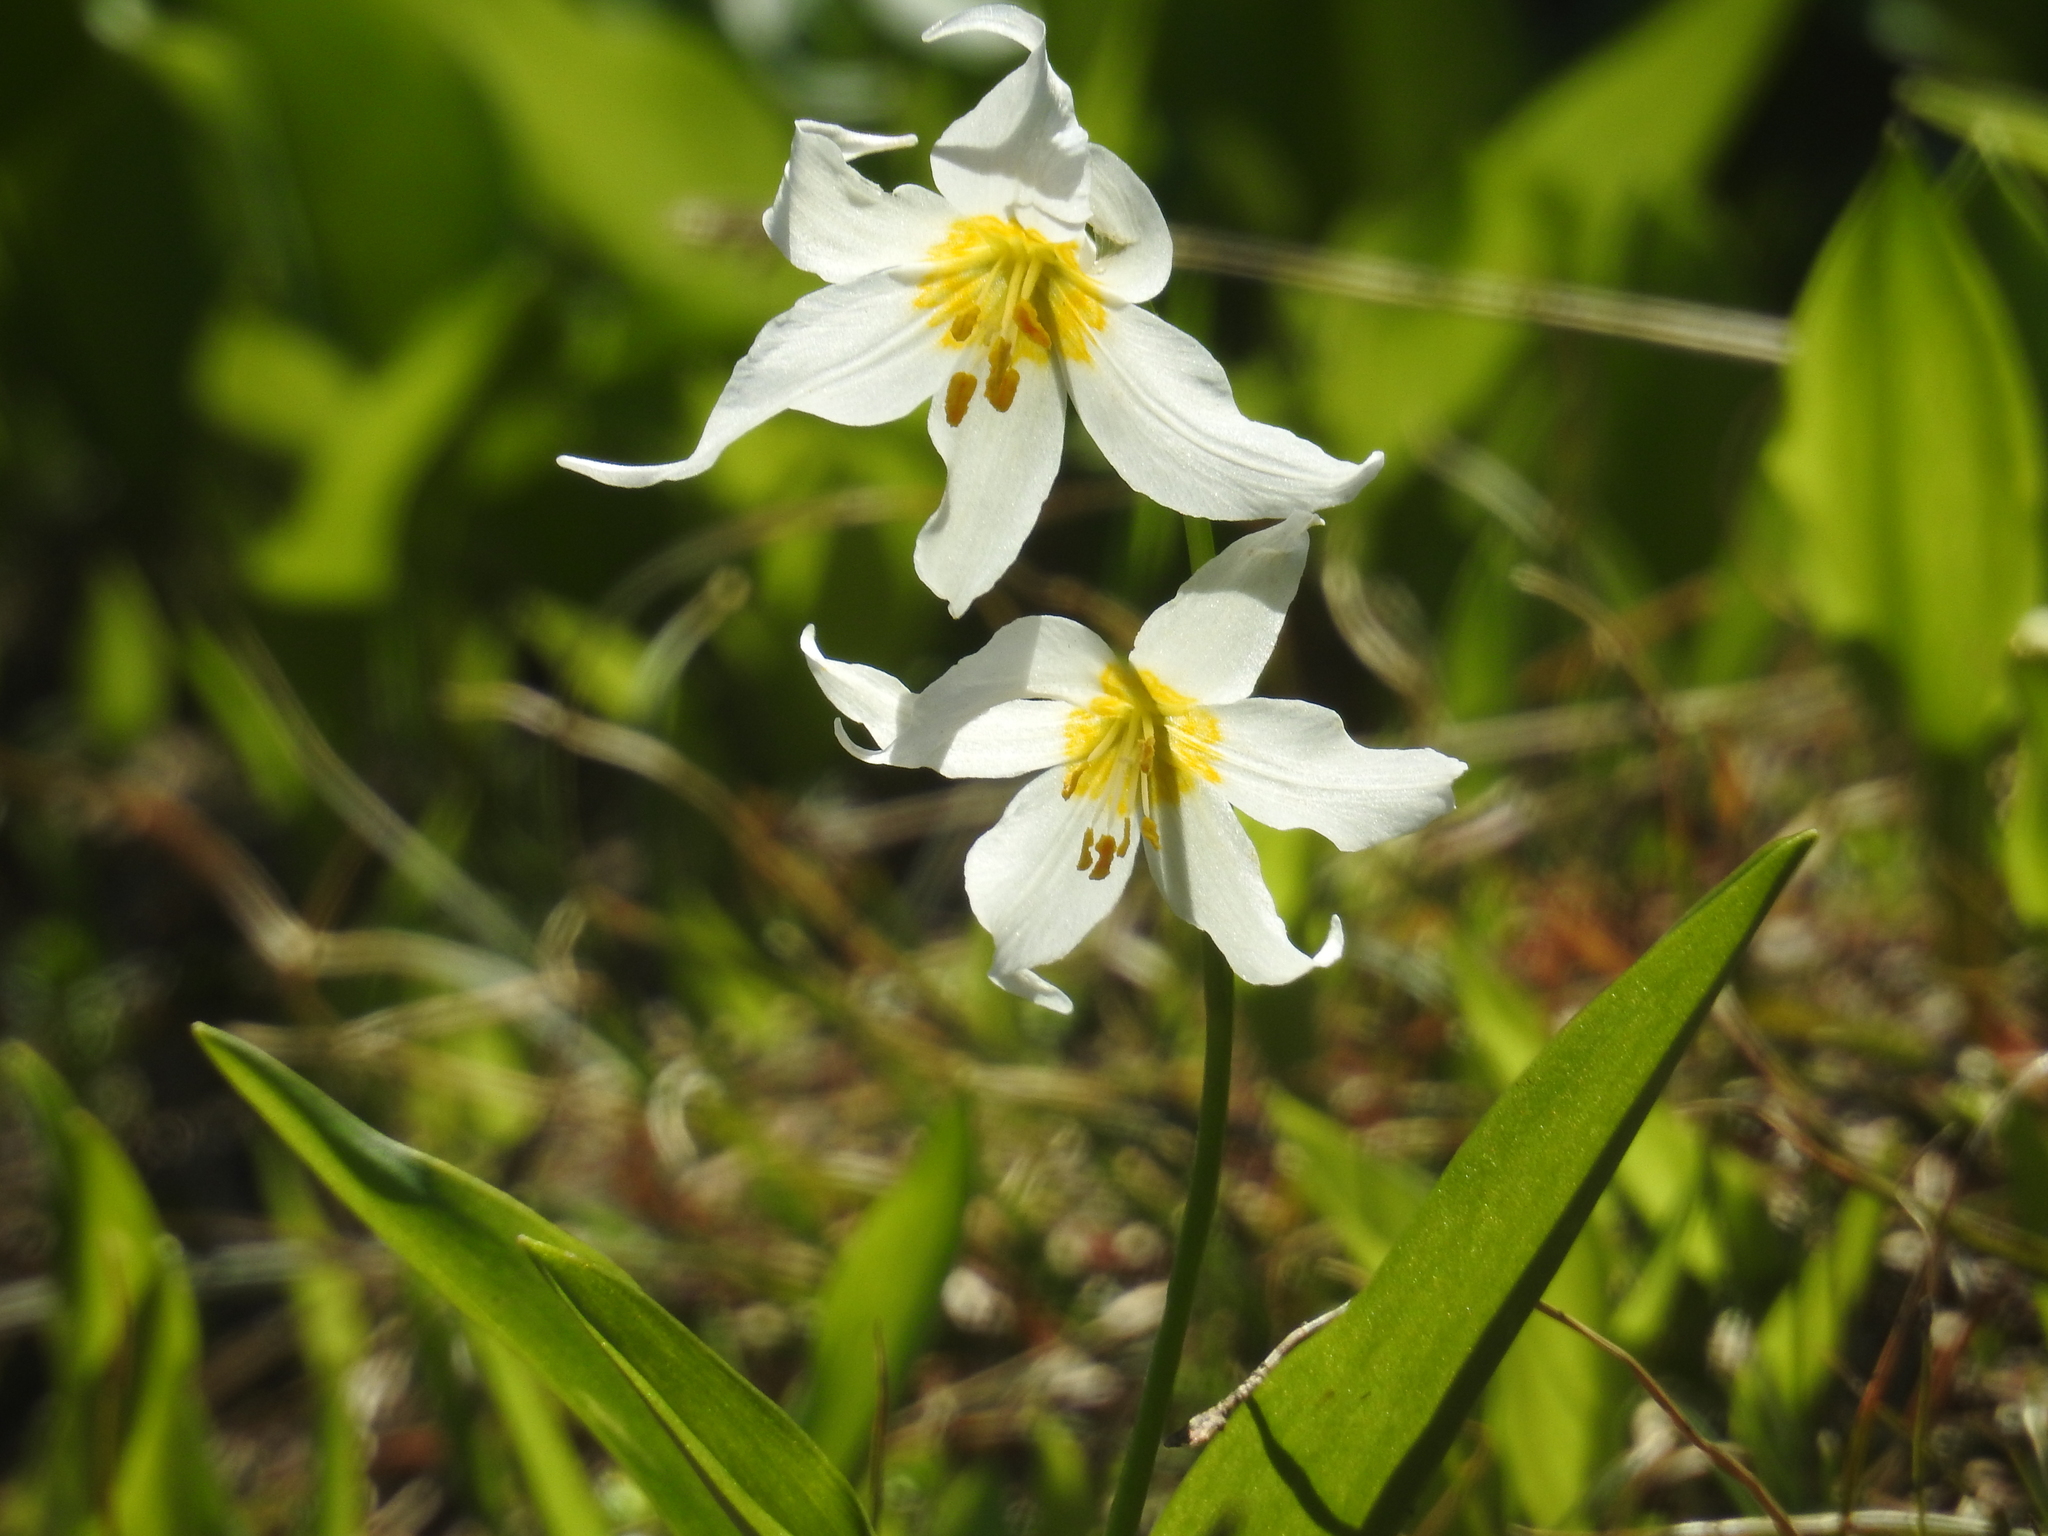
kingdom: Plantae
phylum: Tracheophyta
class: Liliopsida
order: Liliales
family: Liliaceae
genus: Erythronium
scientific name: Erythronium montanum
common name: Avalanche lily
